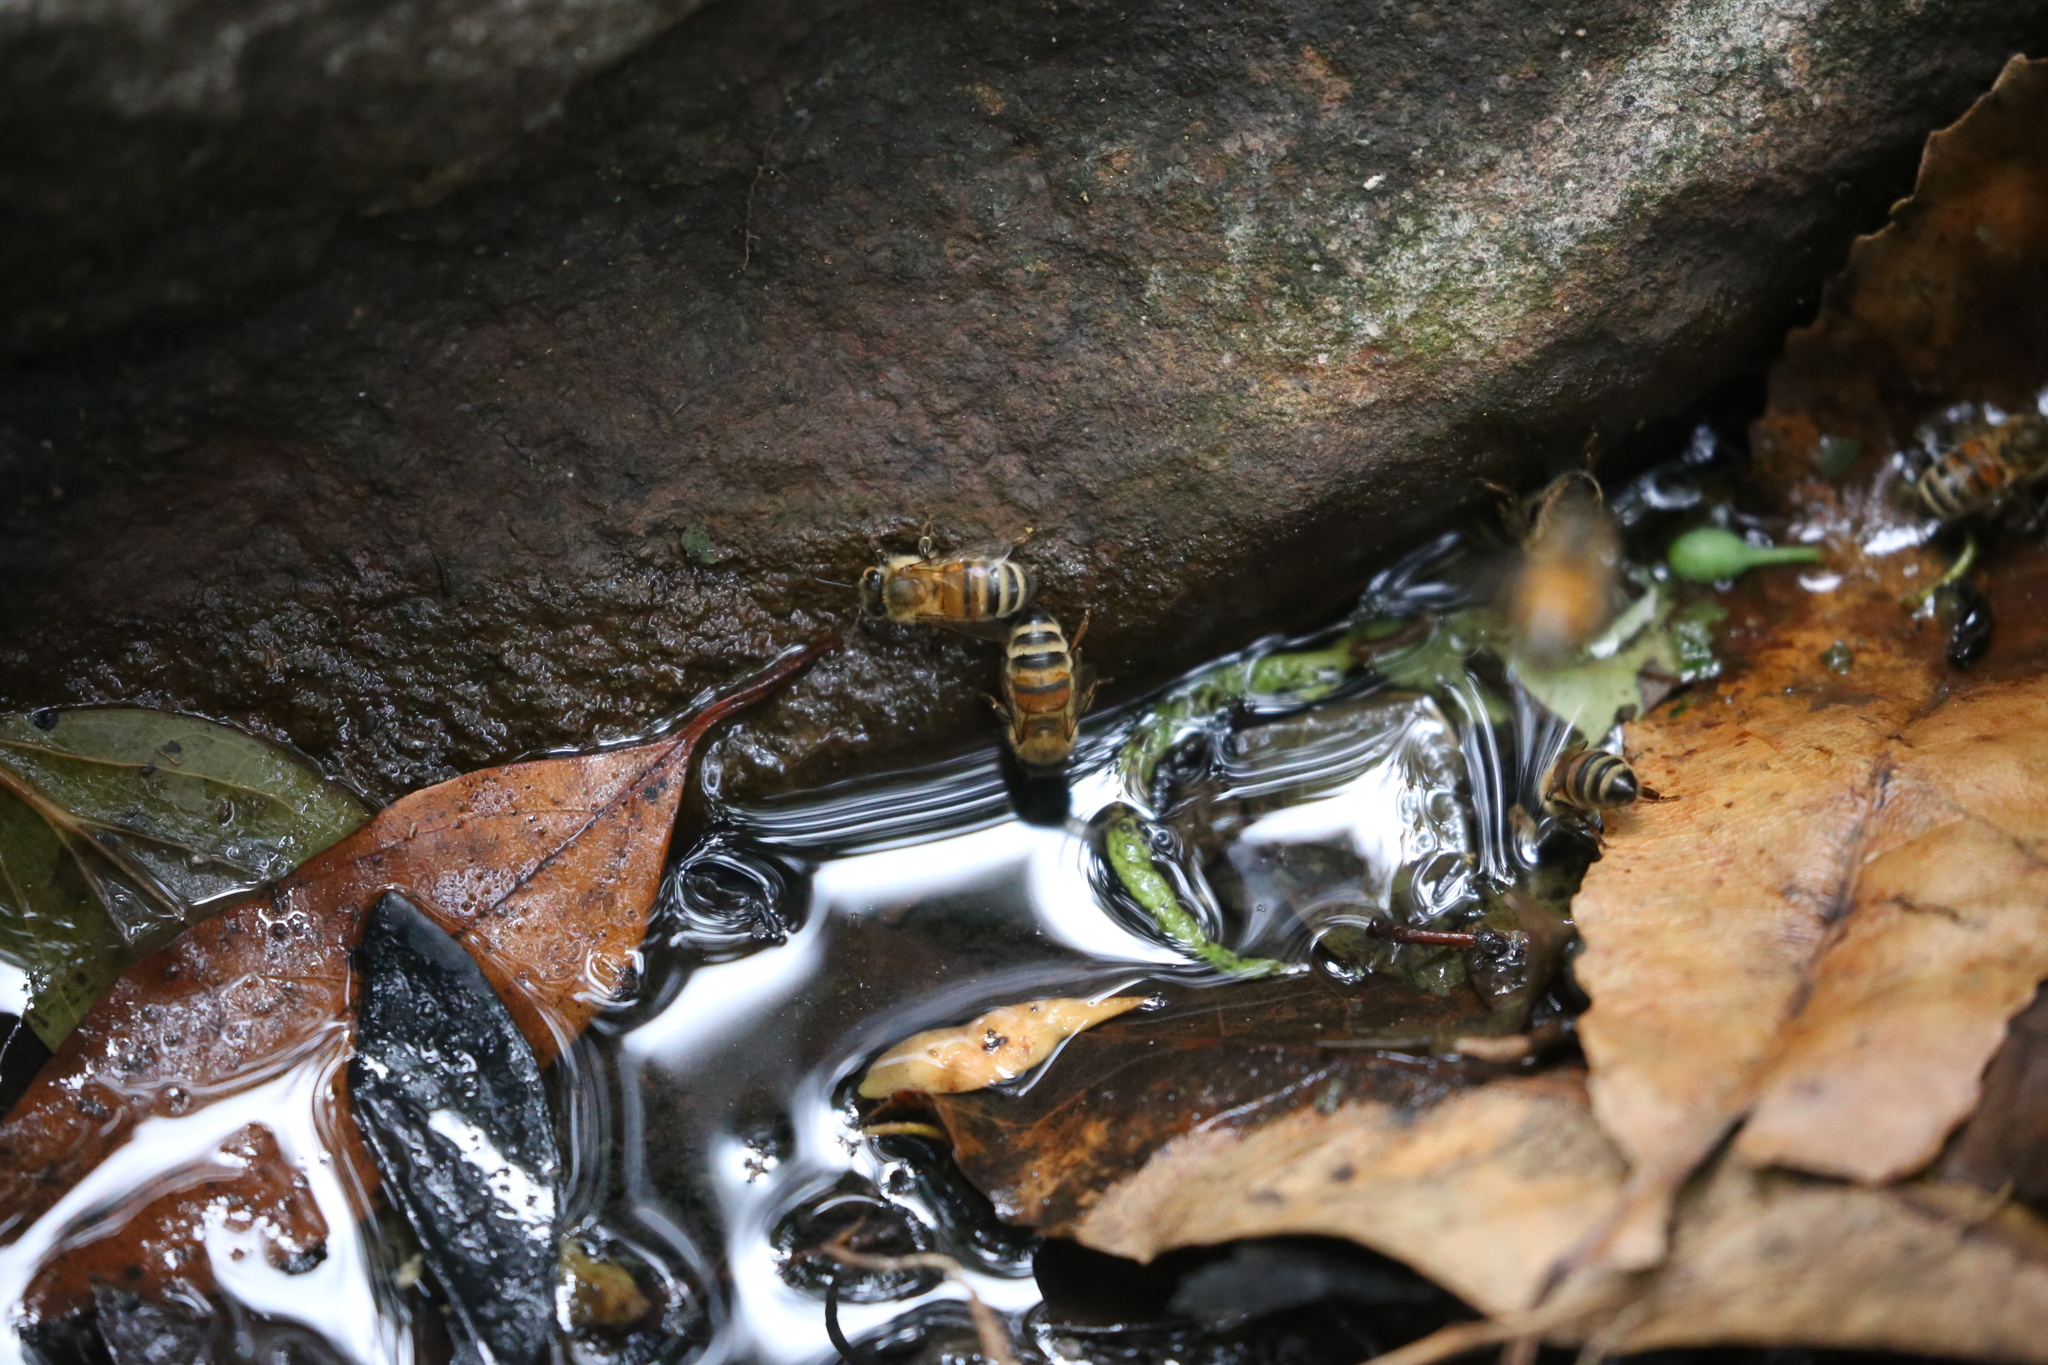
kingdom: Animalia
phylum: Arthropoda
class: Insecta
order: Hymenoptera
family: Apidae
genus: Apis
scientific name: Apis mellifera
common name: Honey bee
